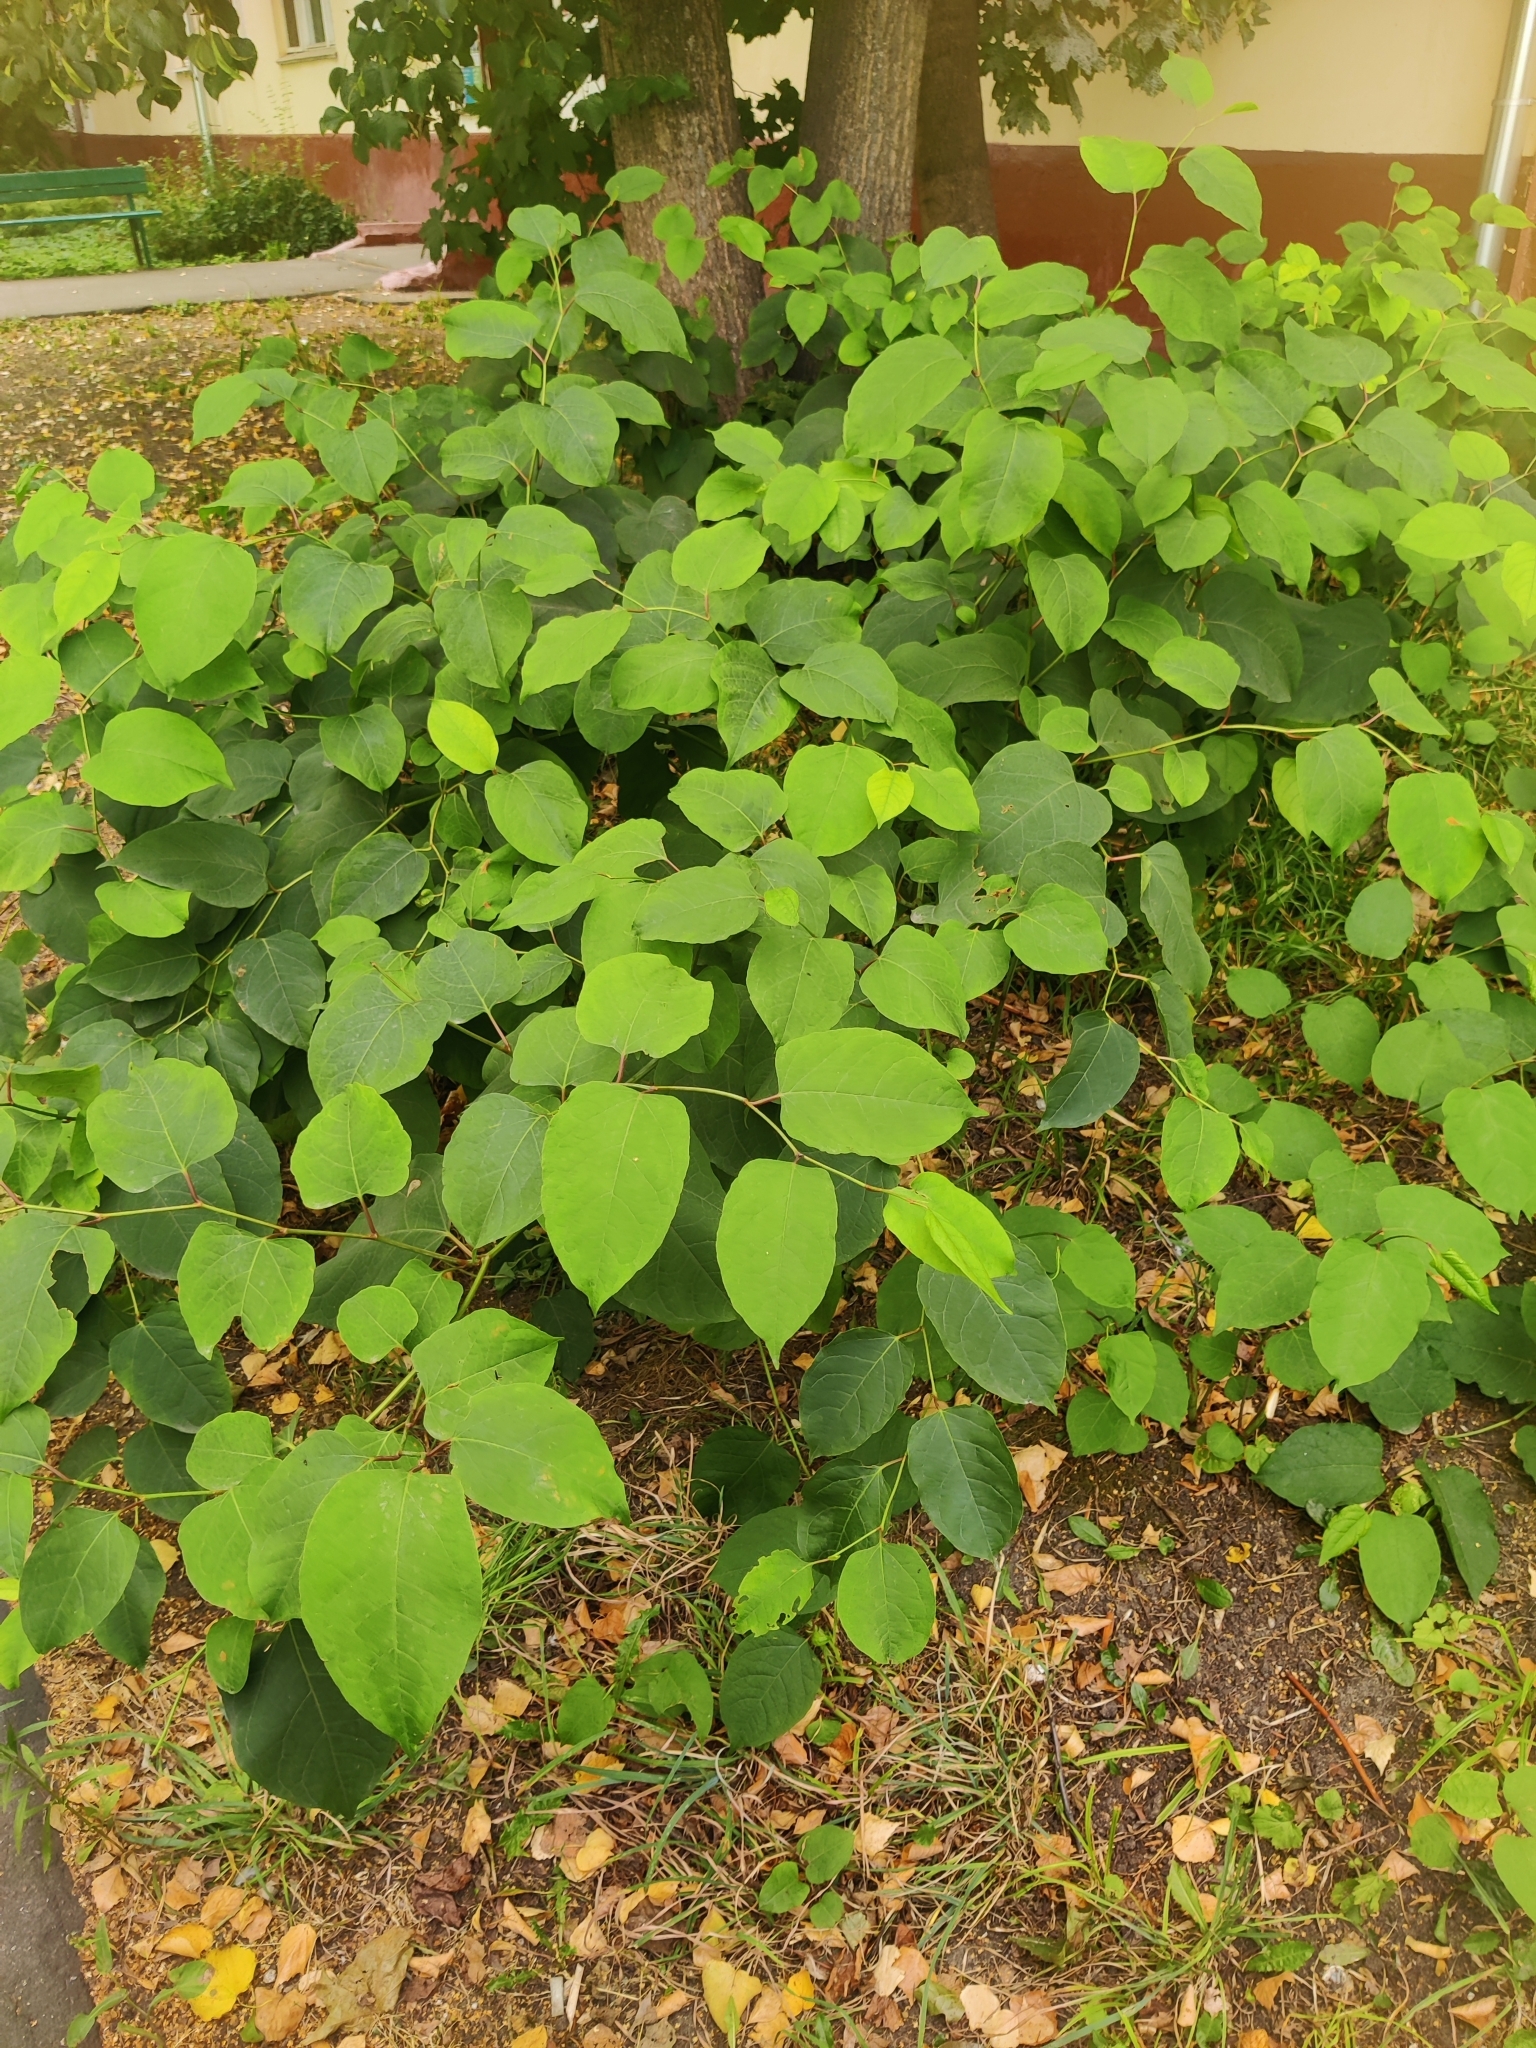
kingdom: Plantae
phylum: Tracheophyta
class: Magnoliopsida
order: Caryophyllales
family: Polygonaceae
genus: Reynoutria
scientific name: Reynoutria bohemica
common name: Bohemian knotweed
